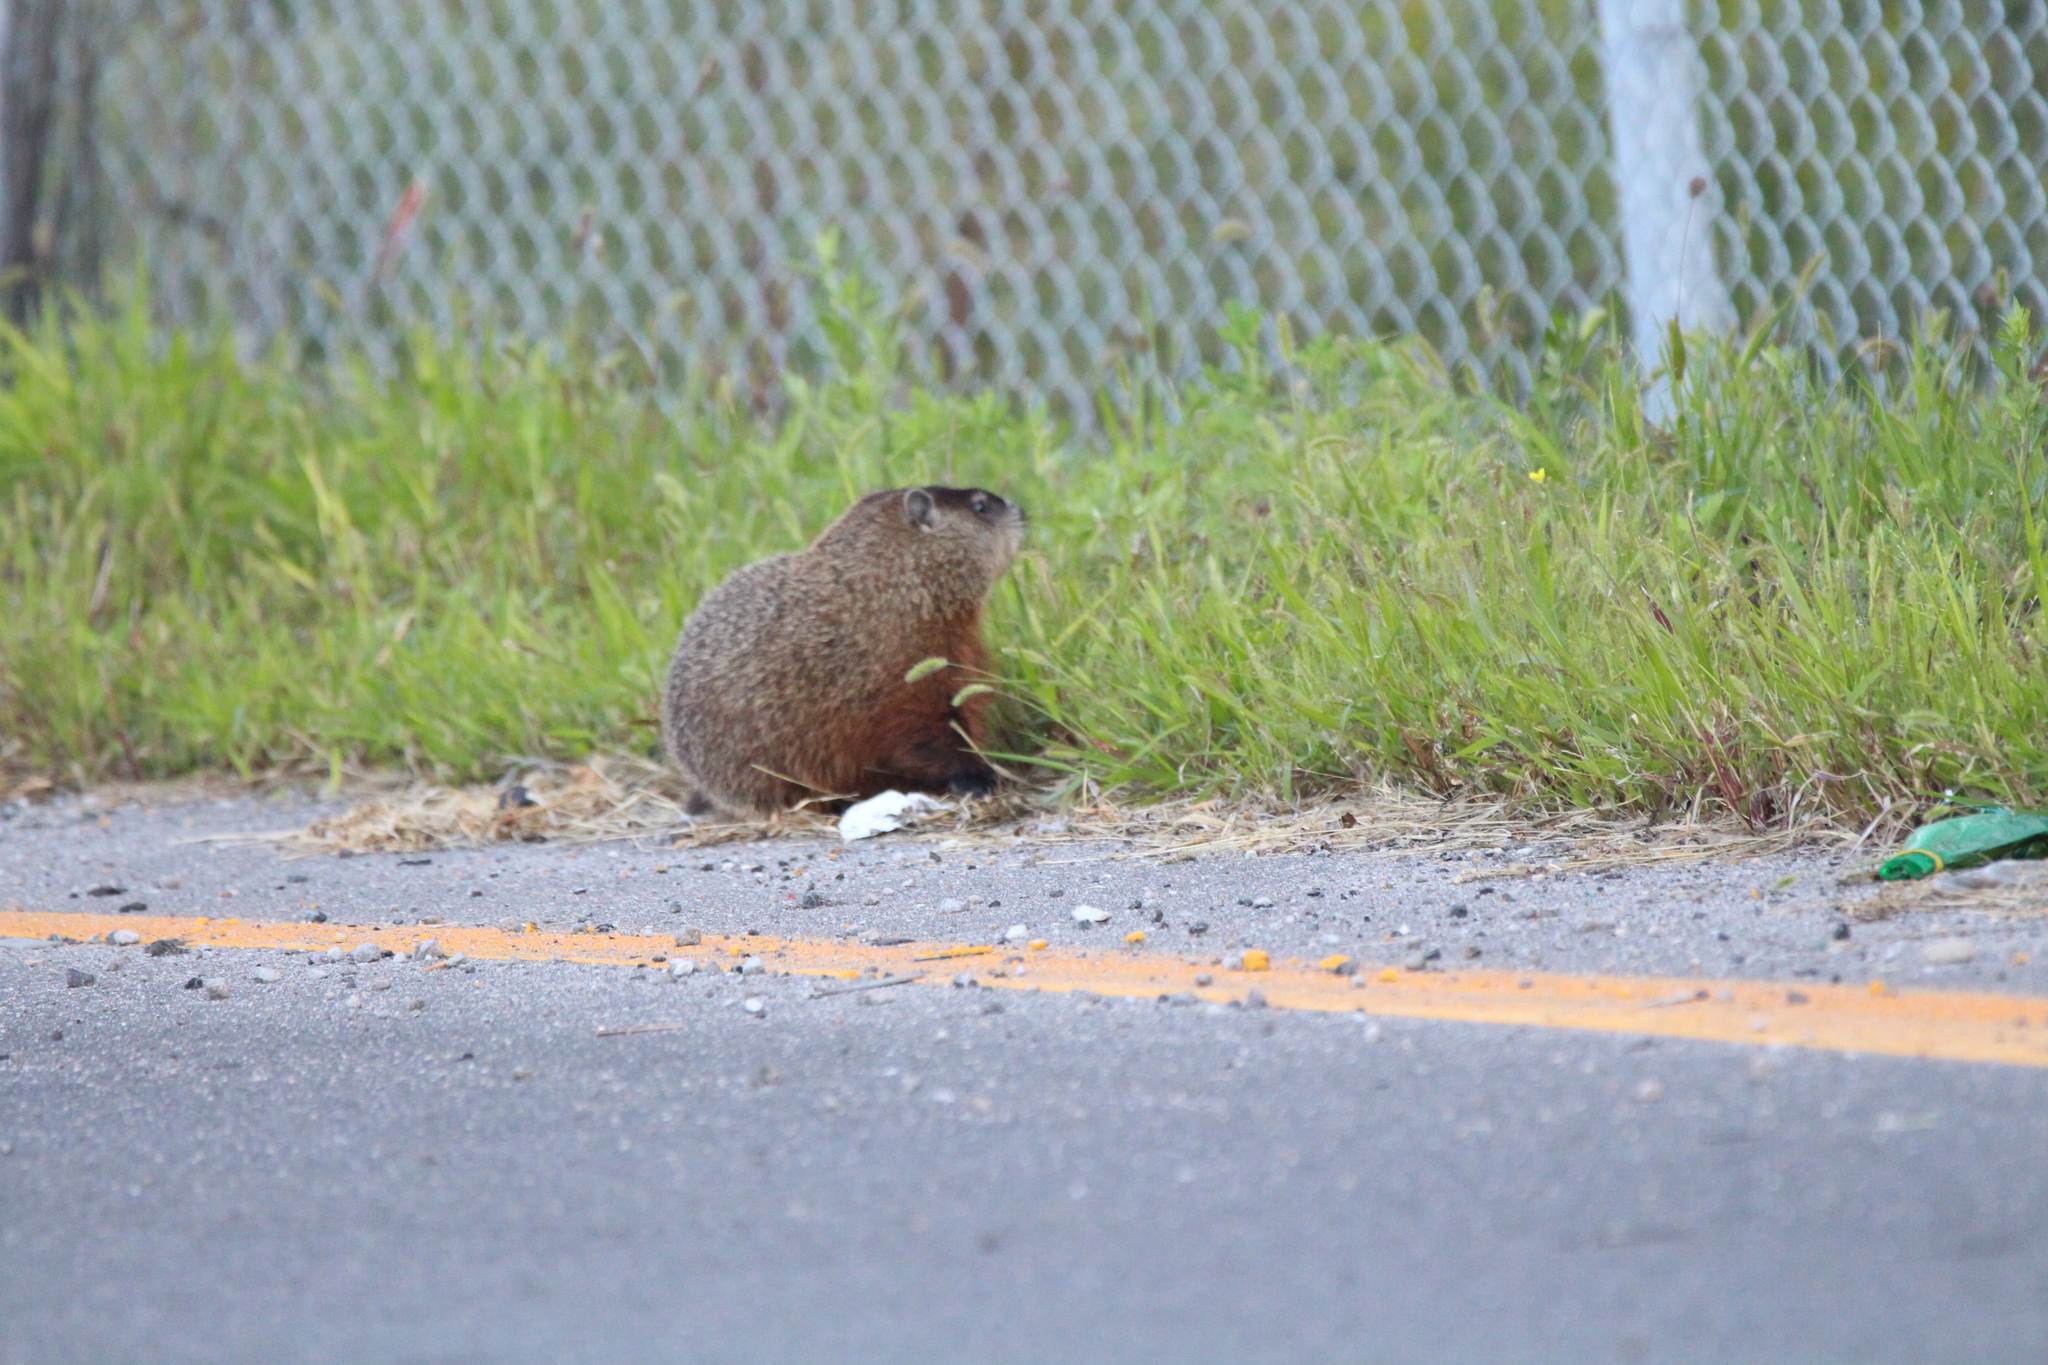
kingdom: Animalia
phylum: Chordata
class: Mammalia
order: Rodentia
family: Sciuridae
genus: Marmota
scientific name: Marmota monax
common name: Groundhog
